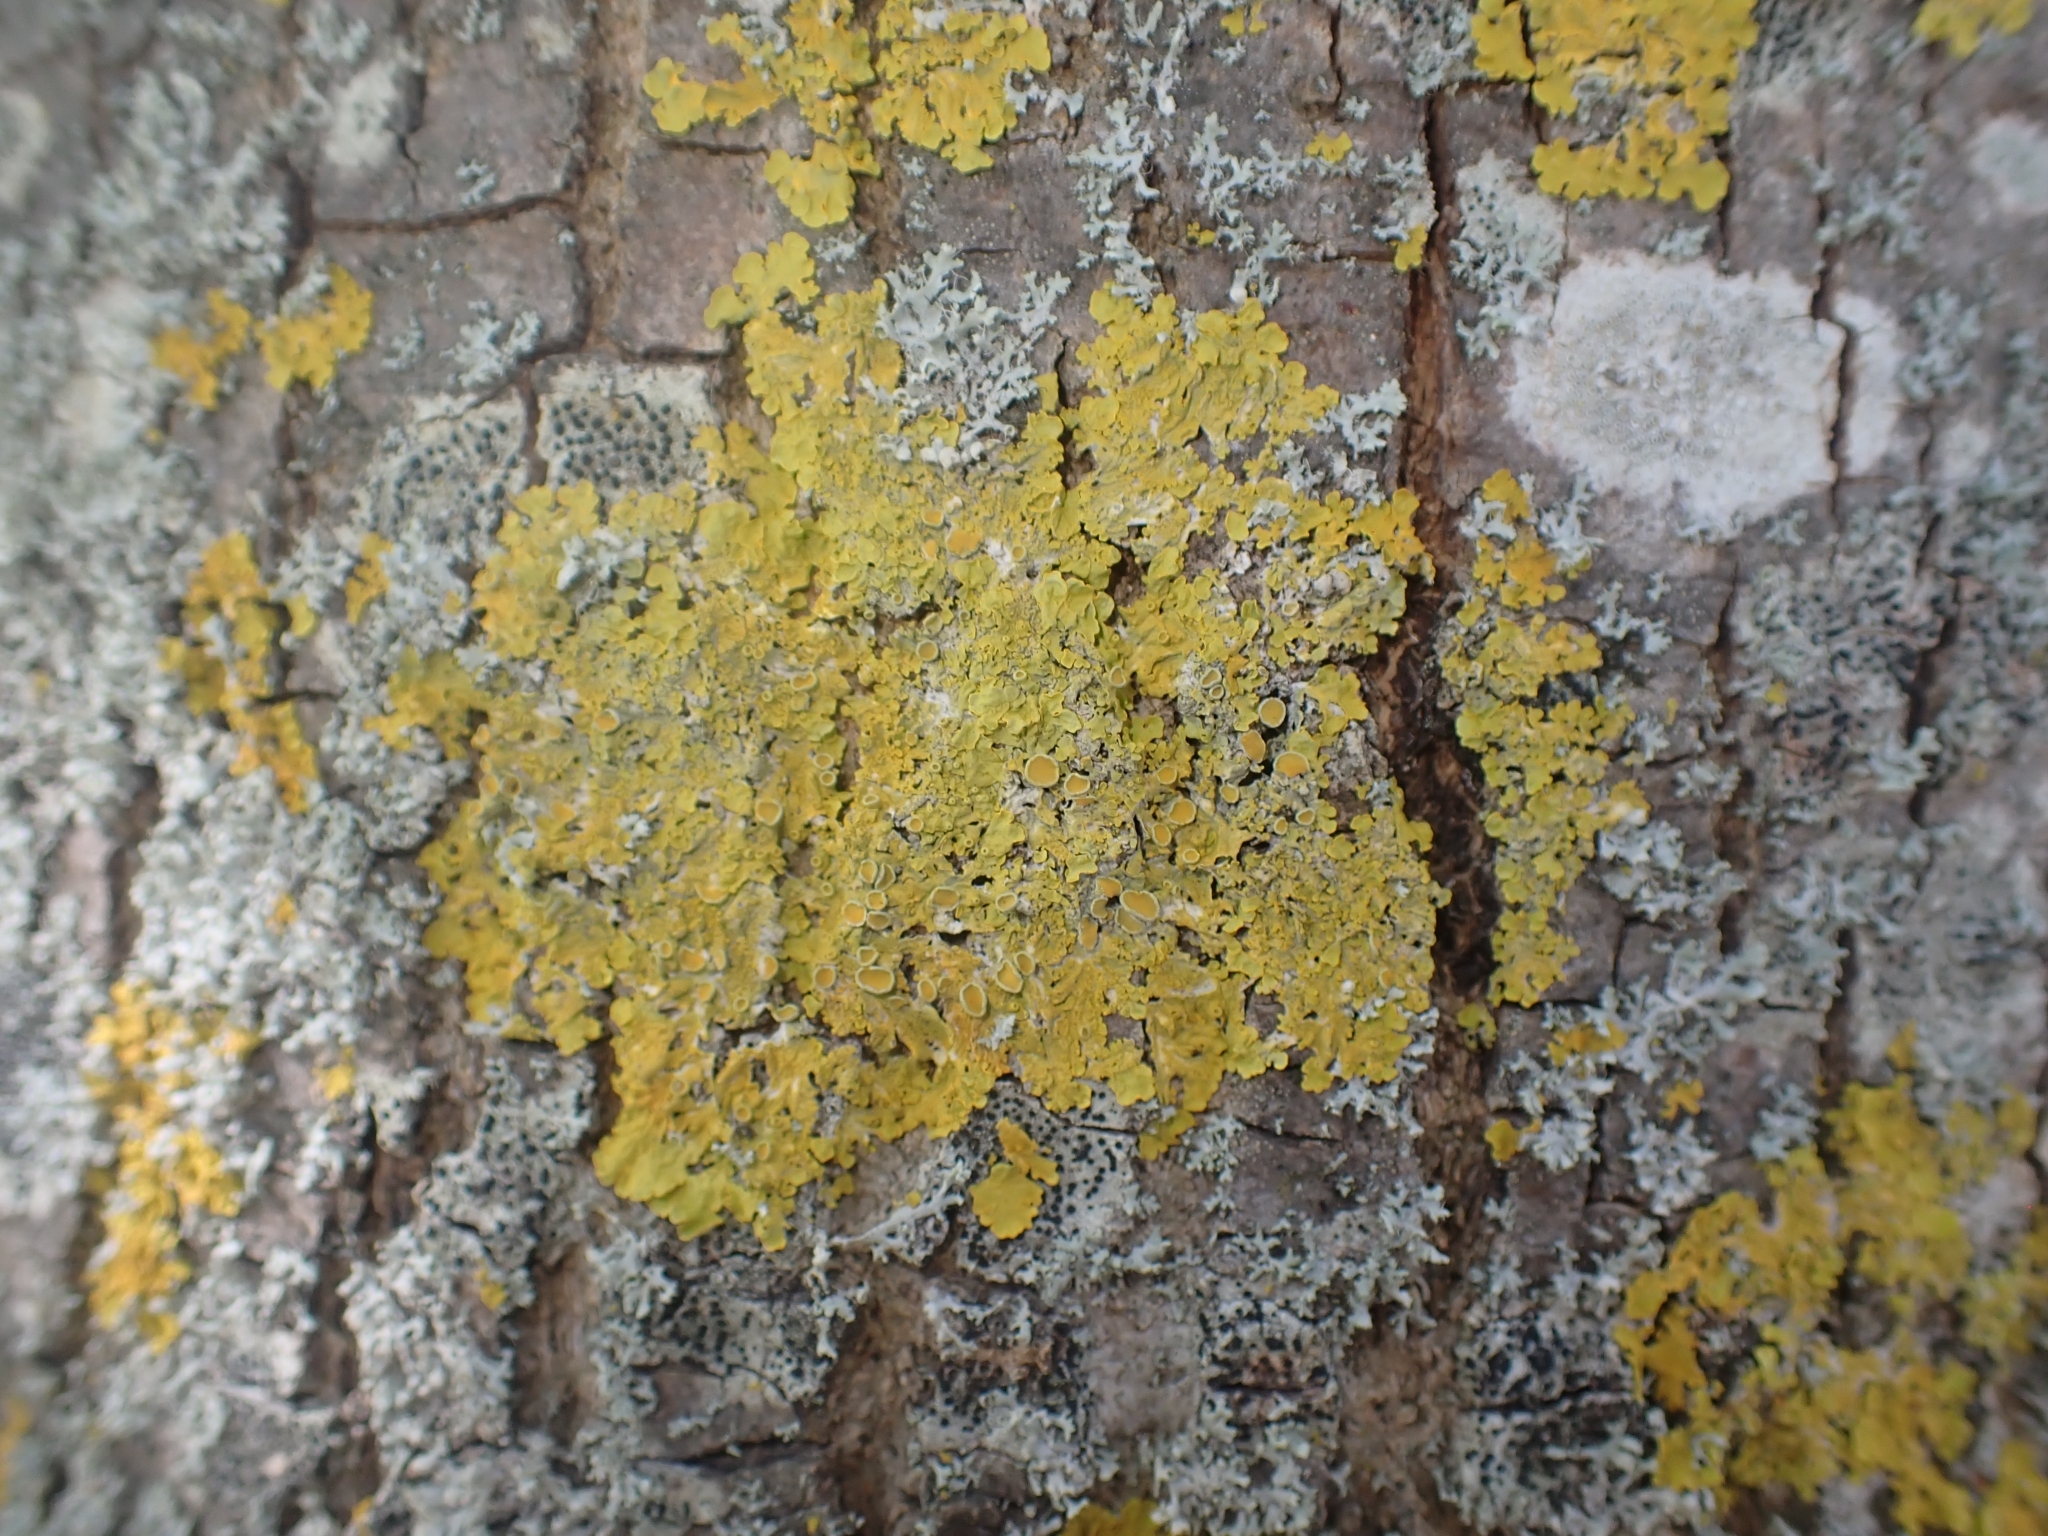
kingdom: Fungi
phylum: Ascomycota
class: Lecanoromycetes
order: Teloschistales
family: Teloschistaceae
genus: Xanthoria
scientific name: Xanthoria parietina
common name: Common orange lichen
